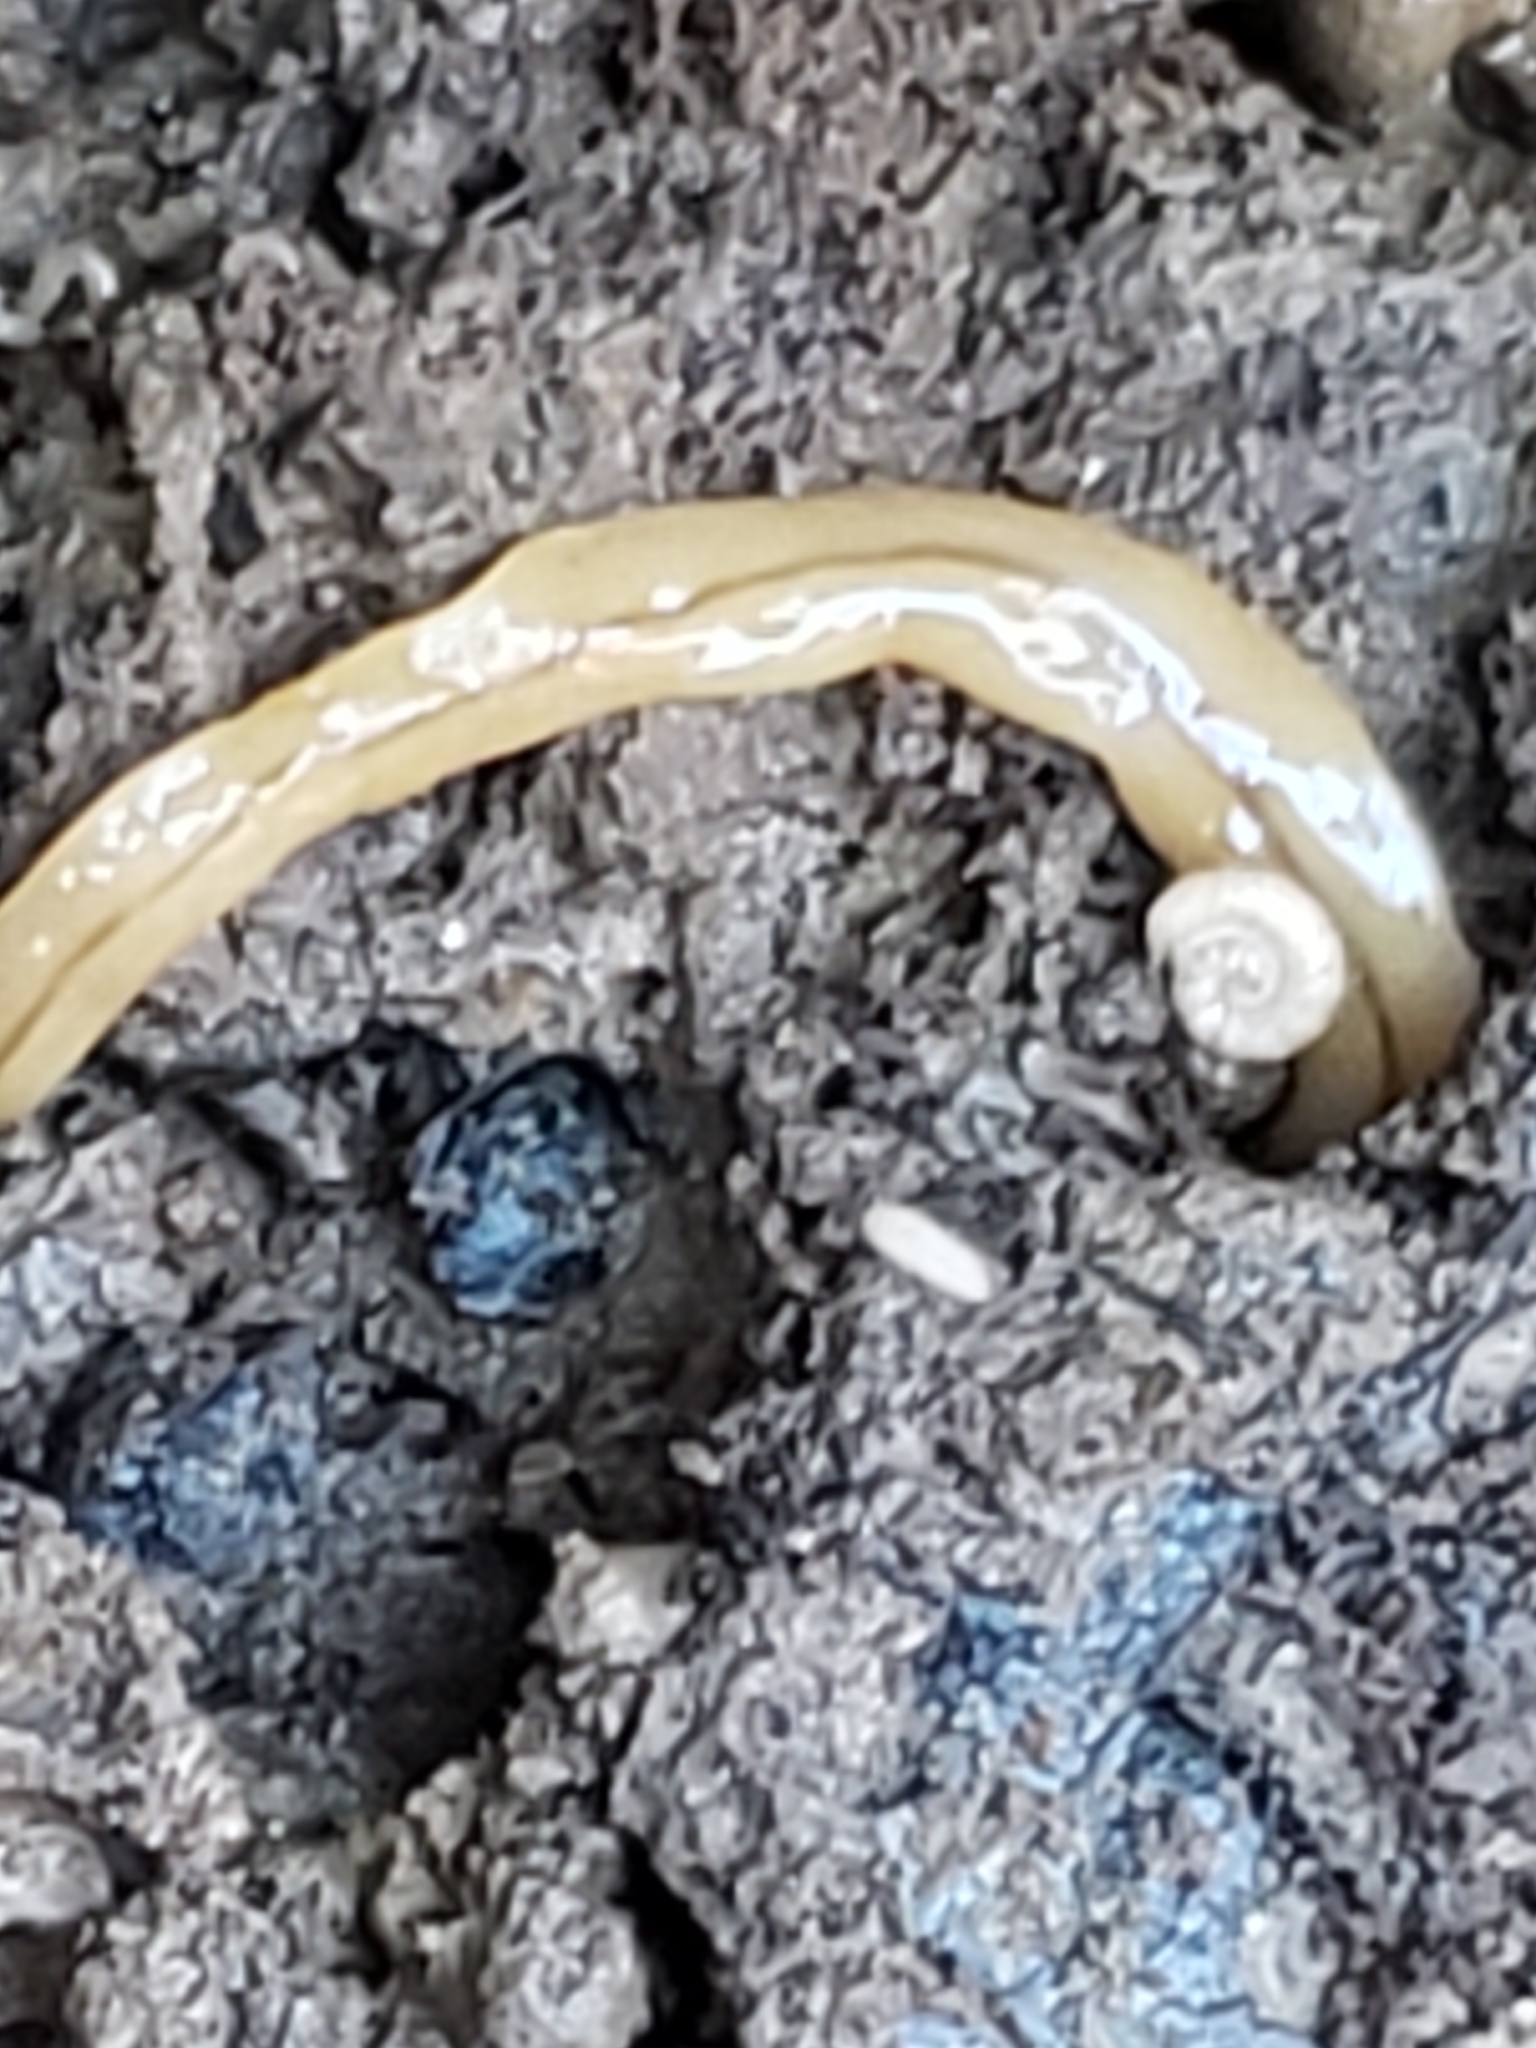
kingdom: Animalia
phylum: Platyhelminthes
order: Tricladida
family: Geoplanidae
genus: Bipalium
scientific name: Bipalium adventitium
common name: Land planarian
